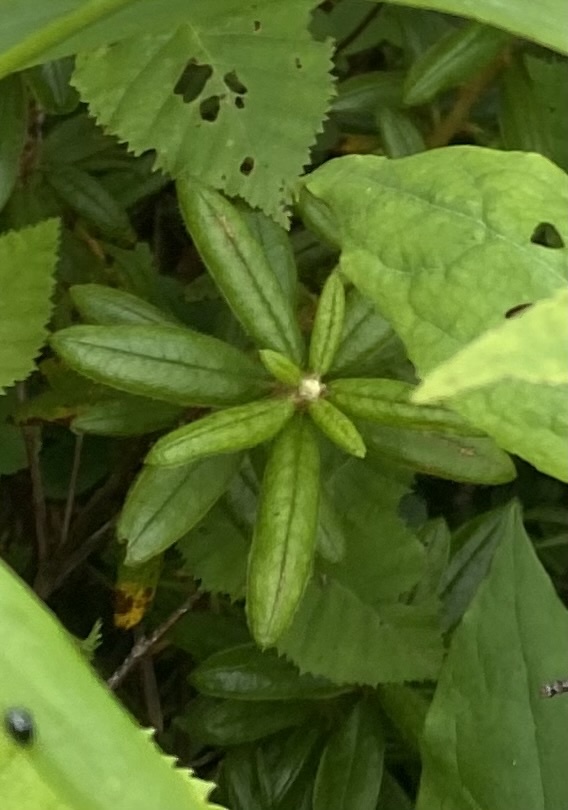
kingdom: Plantae
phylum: Tracheophyta
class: Magnoliopsida
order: Ericales
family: Ericaceae
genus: Rhododendron
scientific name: Rhododendron tomentosum
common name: Marsh labrador tea
